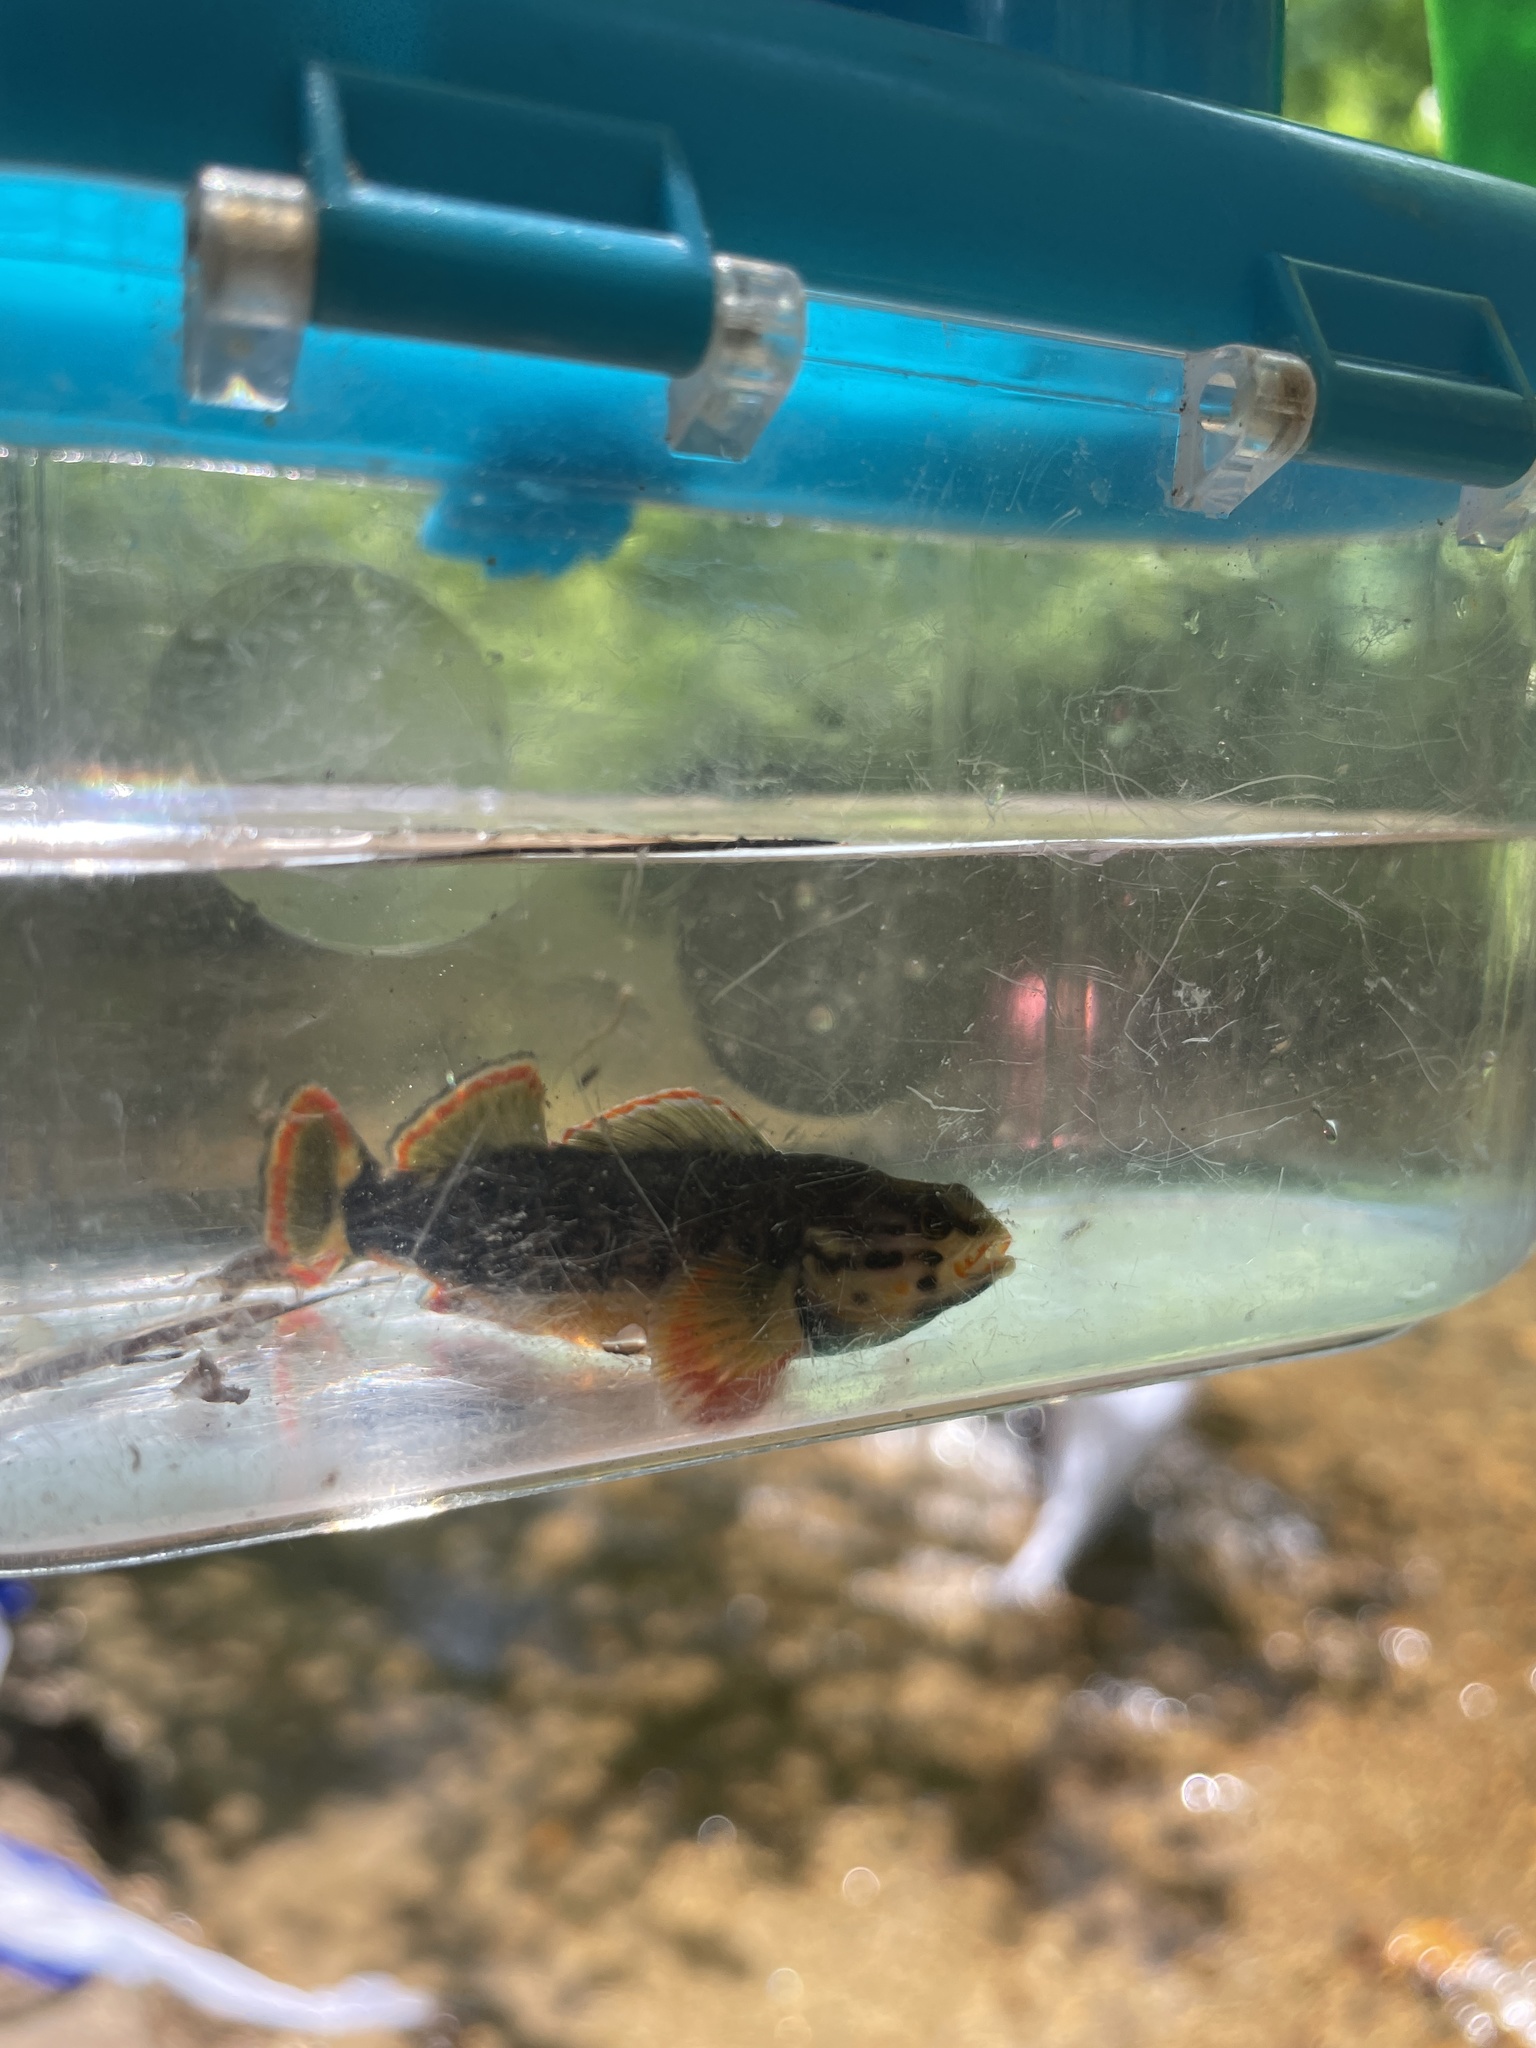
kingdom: Animalia
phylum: Chordata
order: Perciformes
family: Percidae
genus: Etheostoma
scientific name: Etheostoma rufilineatum
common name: Redline darter
